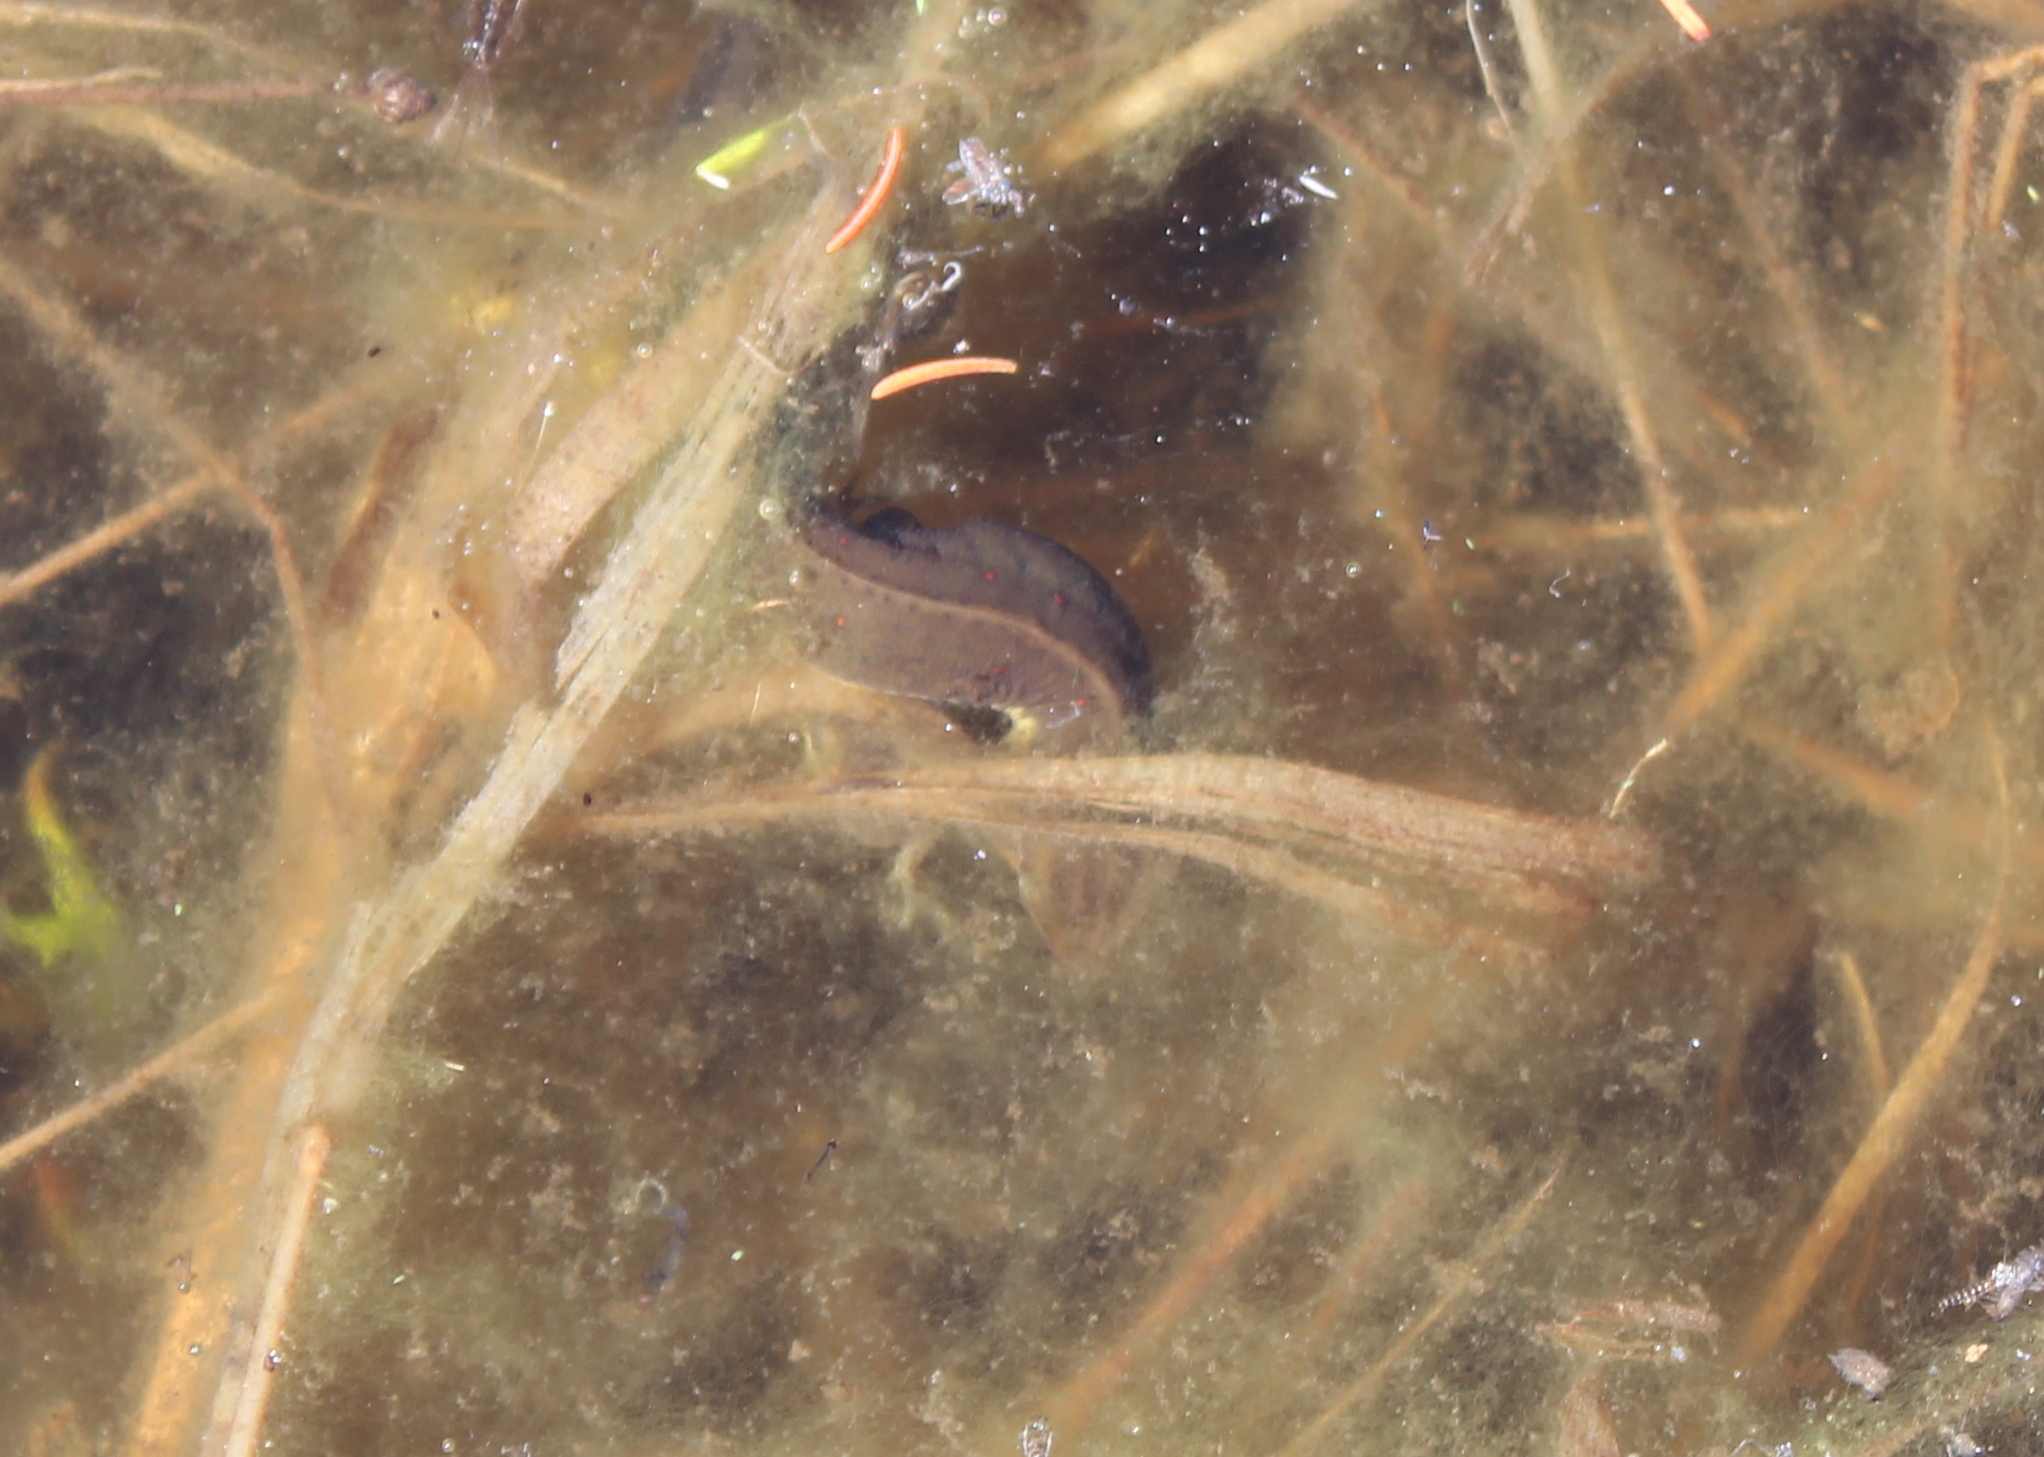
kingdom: Animalia
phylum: Chordata
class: Amphibia
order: Caudata
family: Salamandridae
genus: Notophthalmus
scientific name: Notophthalmus viridescens
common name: Eastern newt
